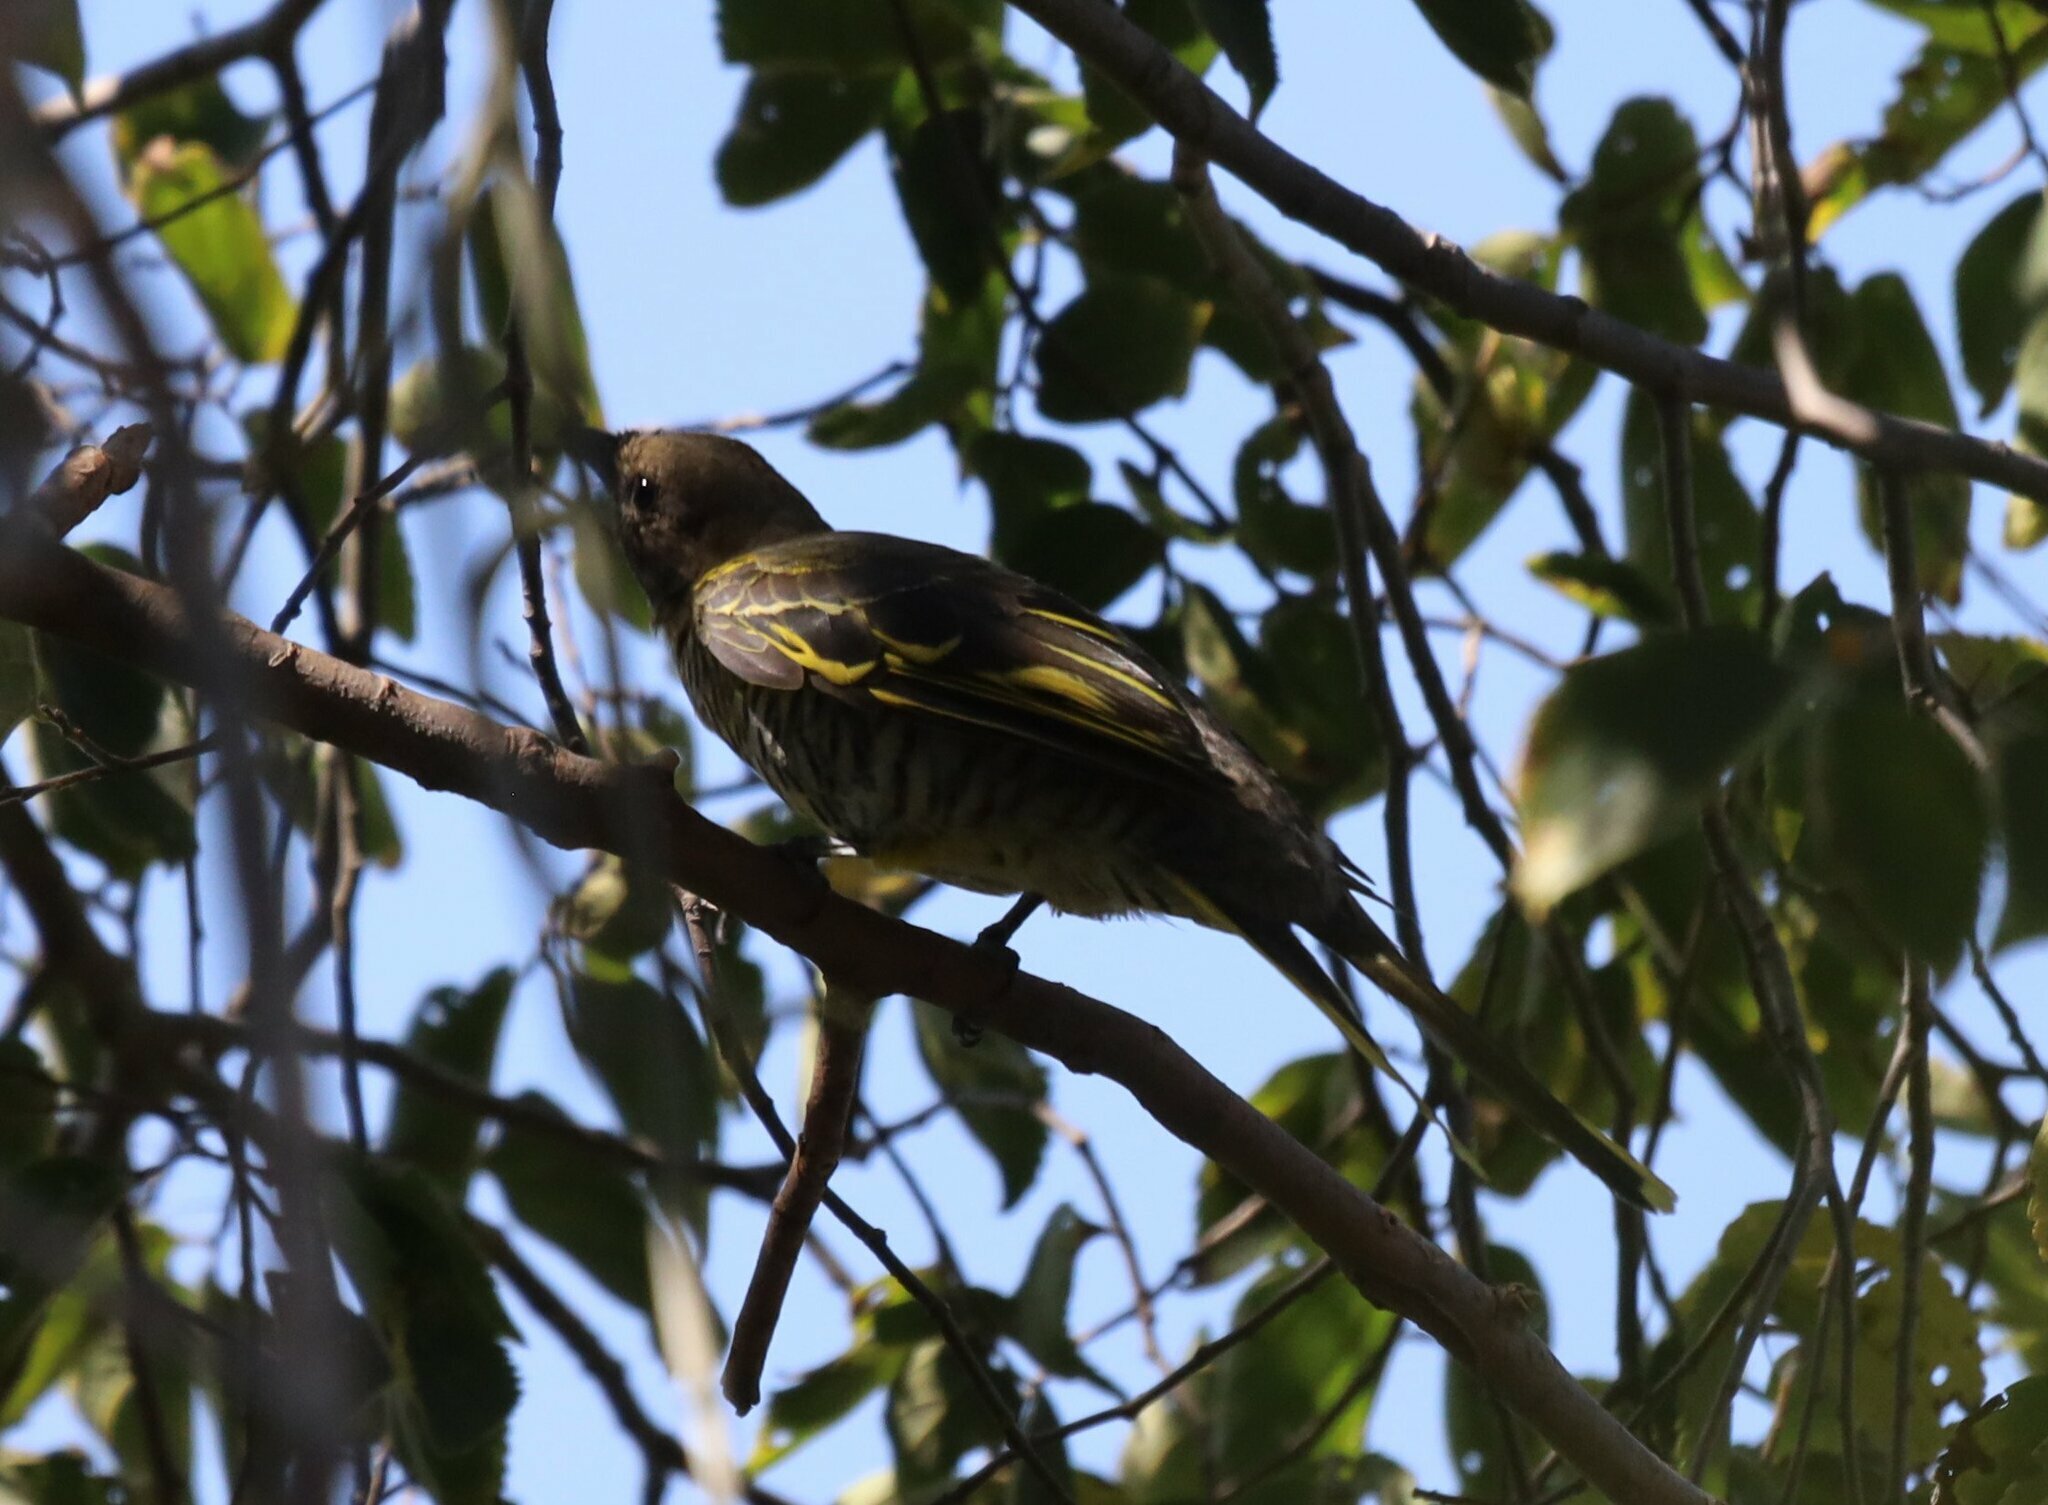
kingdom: Animalia
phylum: Chordata
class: Aves
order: Passeriformes
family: Campephagidae
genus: Campephaga
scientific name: Campephaga flava
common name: Black cuckooshrike
